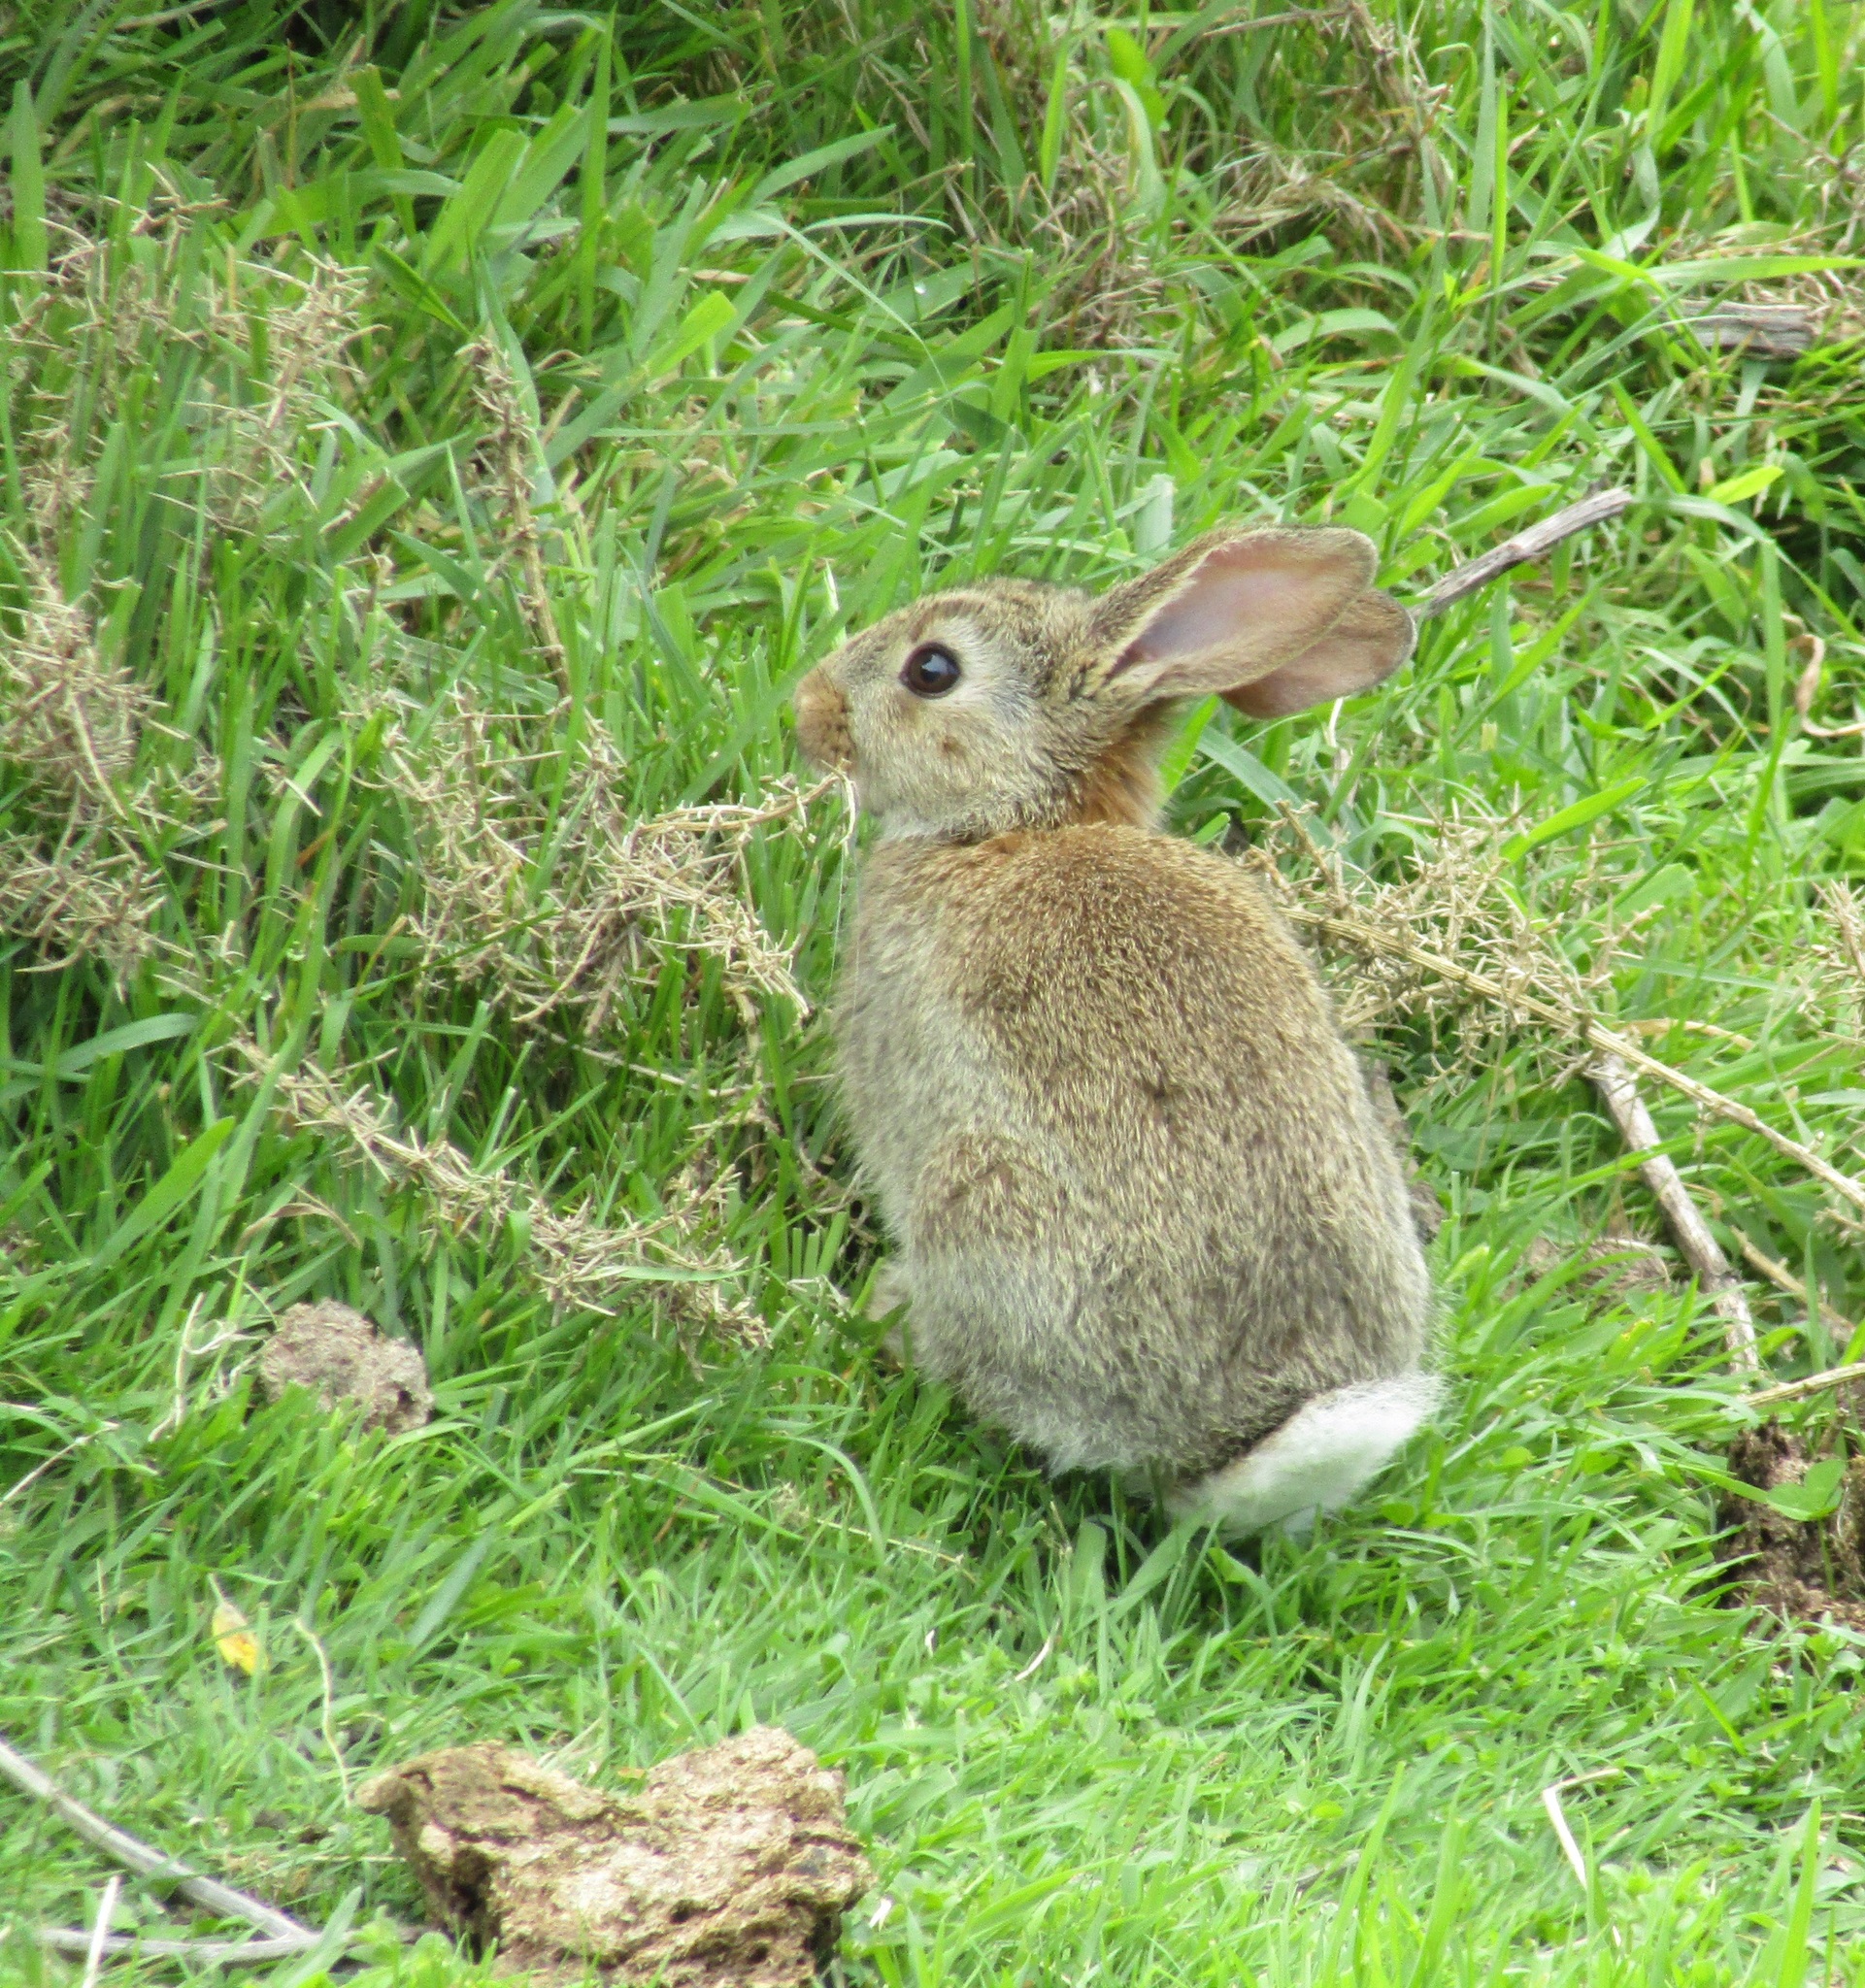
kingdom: Animalia
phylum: Chordata
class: Mammalia
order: Lagomorpha
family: Leporidae
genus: Oryctolagus
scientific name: Oryctolagus cuniculus
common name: European rabbit
